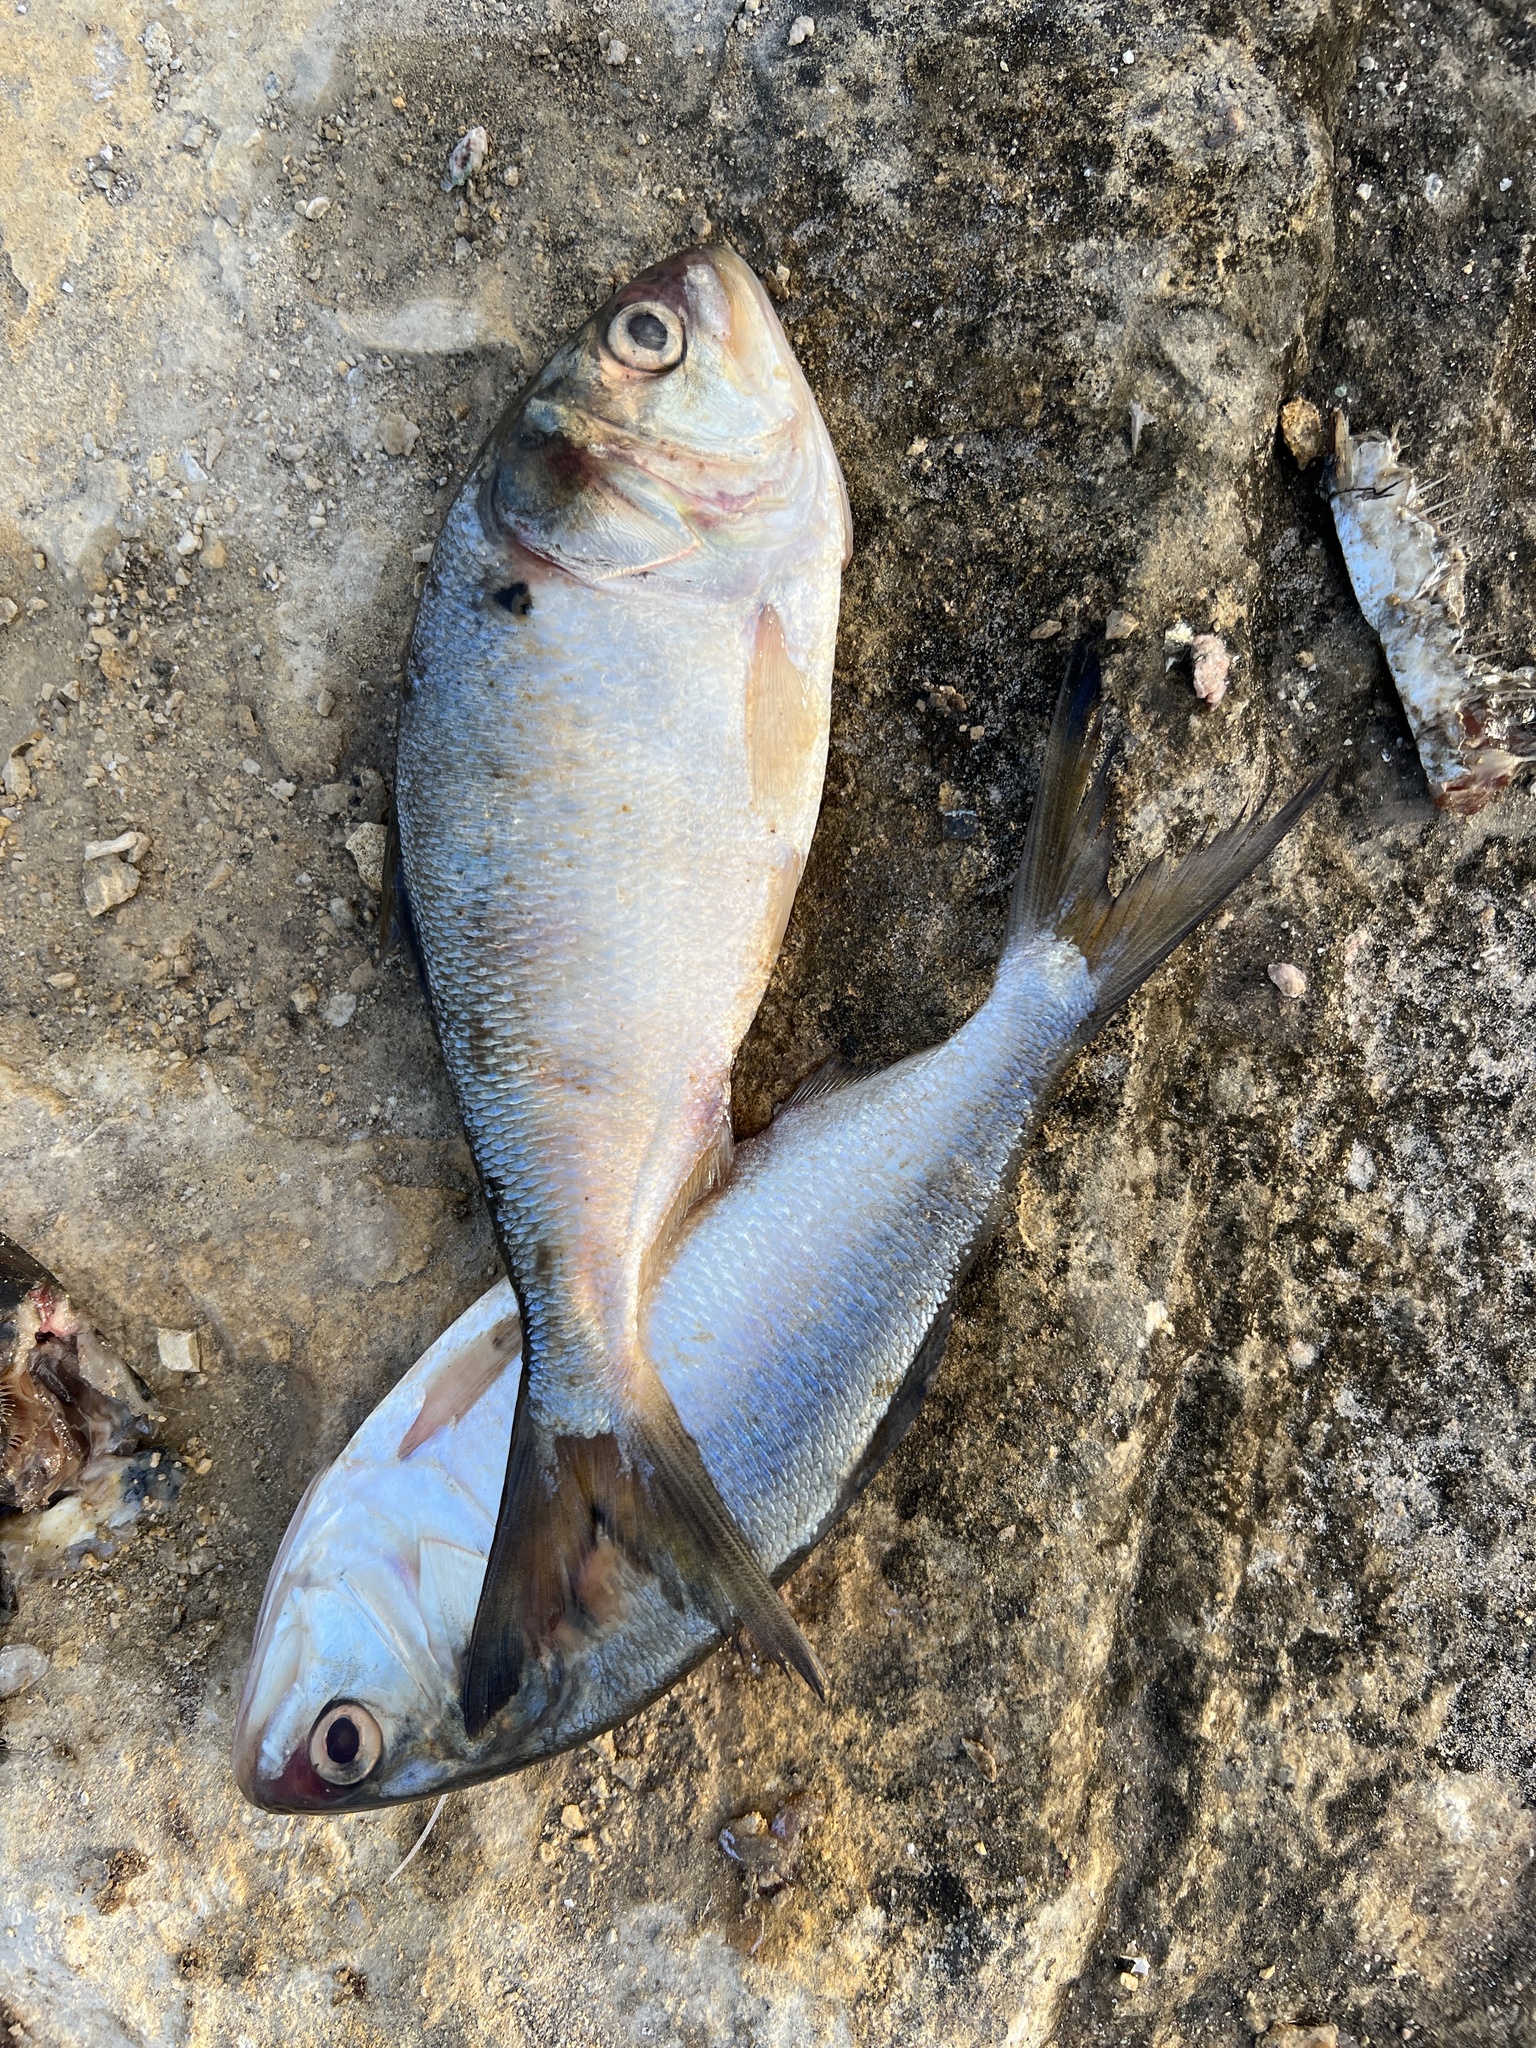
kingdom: Animalia
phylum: Chordata
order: Clupeiformes
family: Clupeidae
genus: Brevoortia
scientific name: Brevoortia patronus
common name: Gulf menhaden
